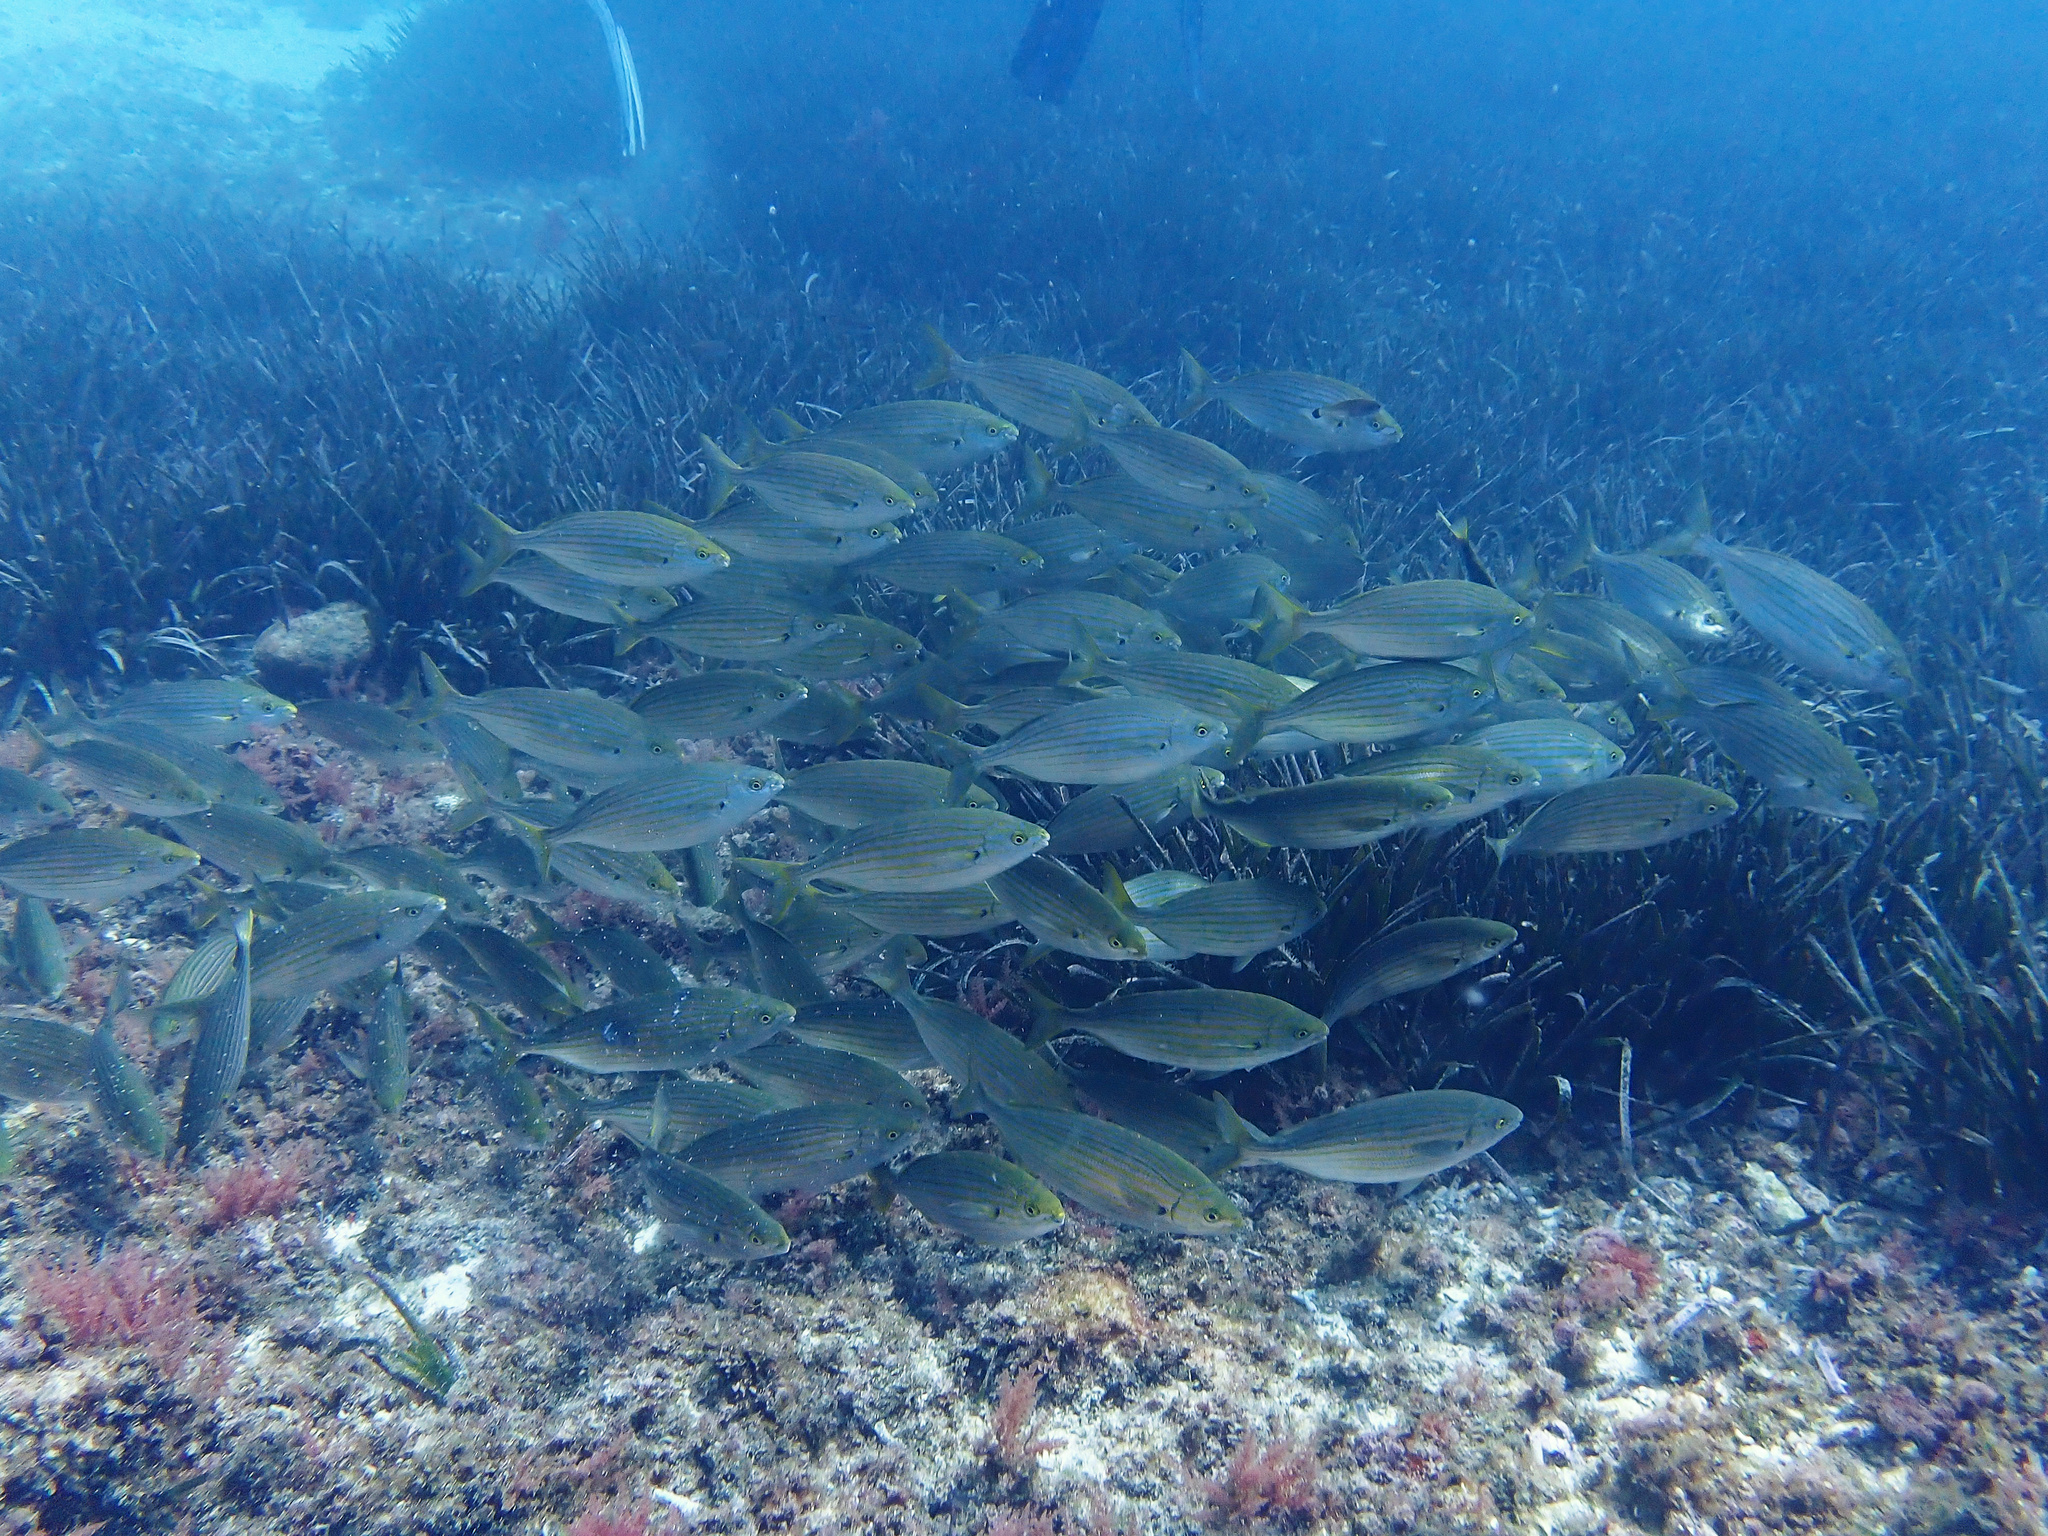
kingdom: Animalia
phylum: Chordata
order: Perciformes
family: Sparidae
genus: Sarpa
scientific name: Sarpa salpa
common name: Salema
